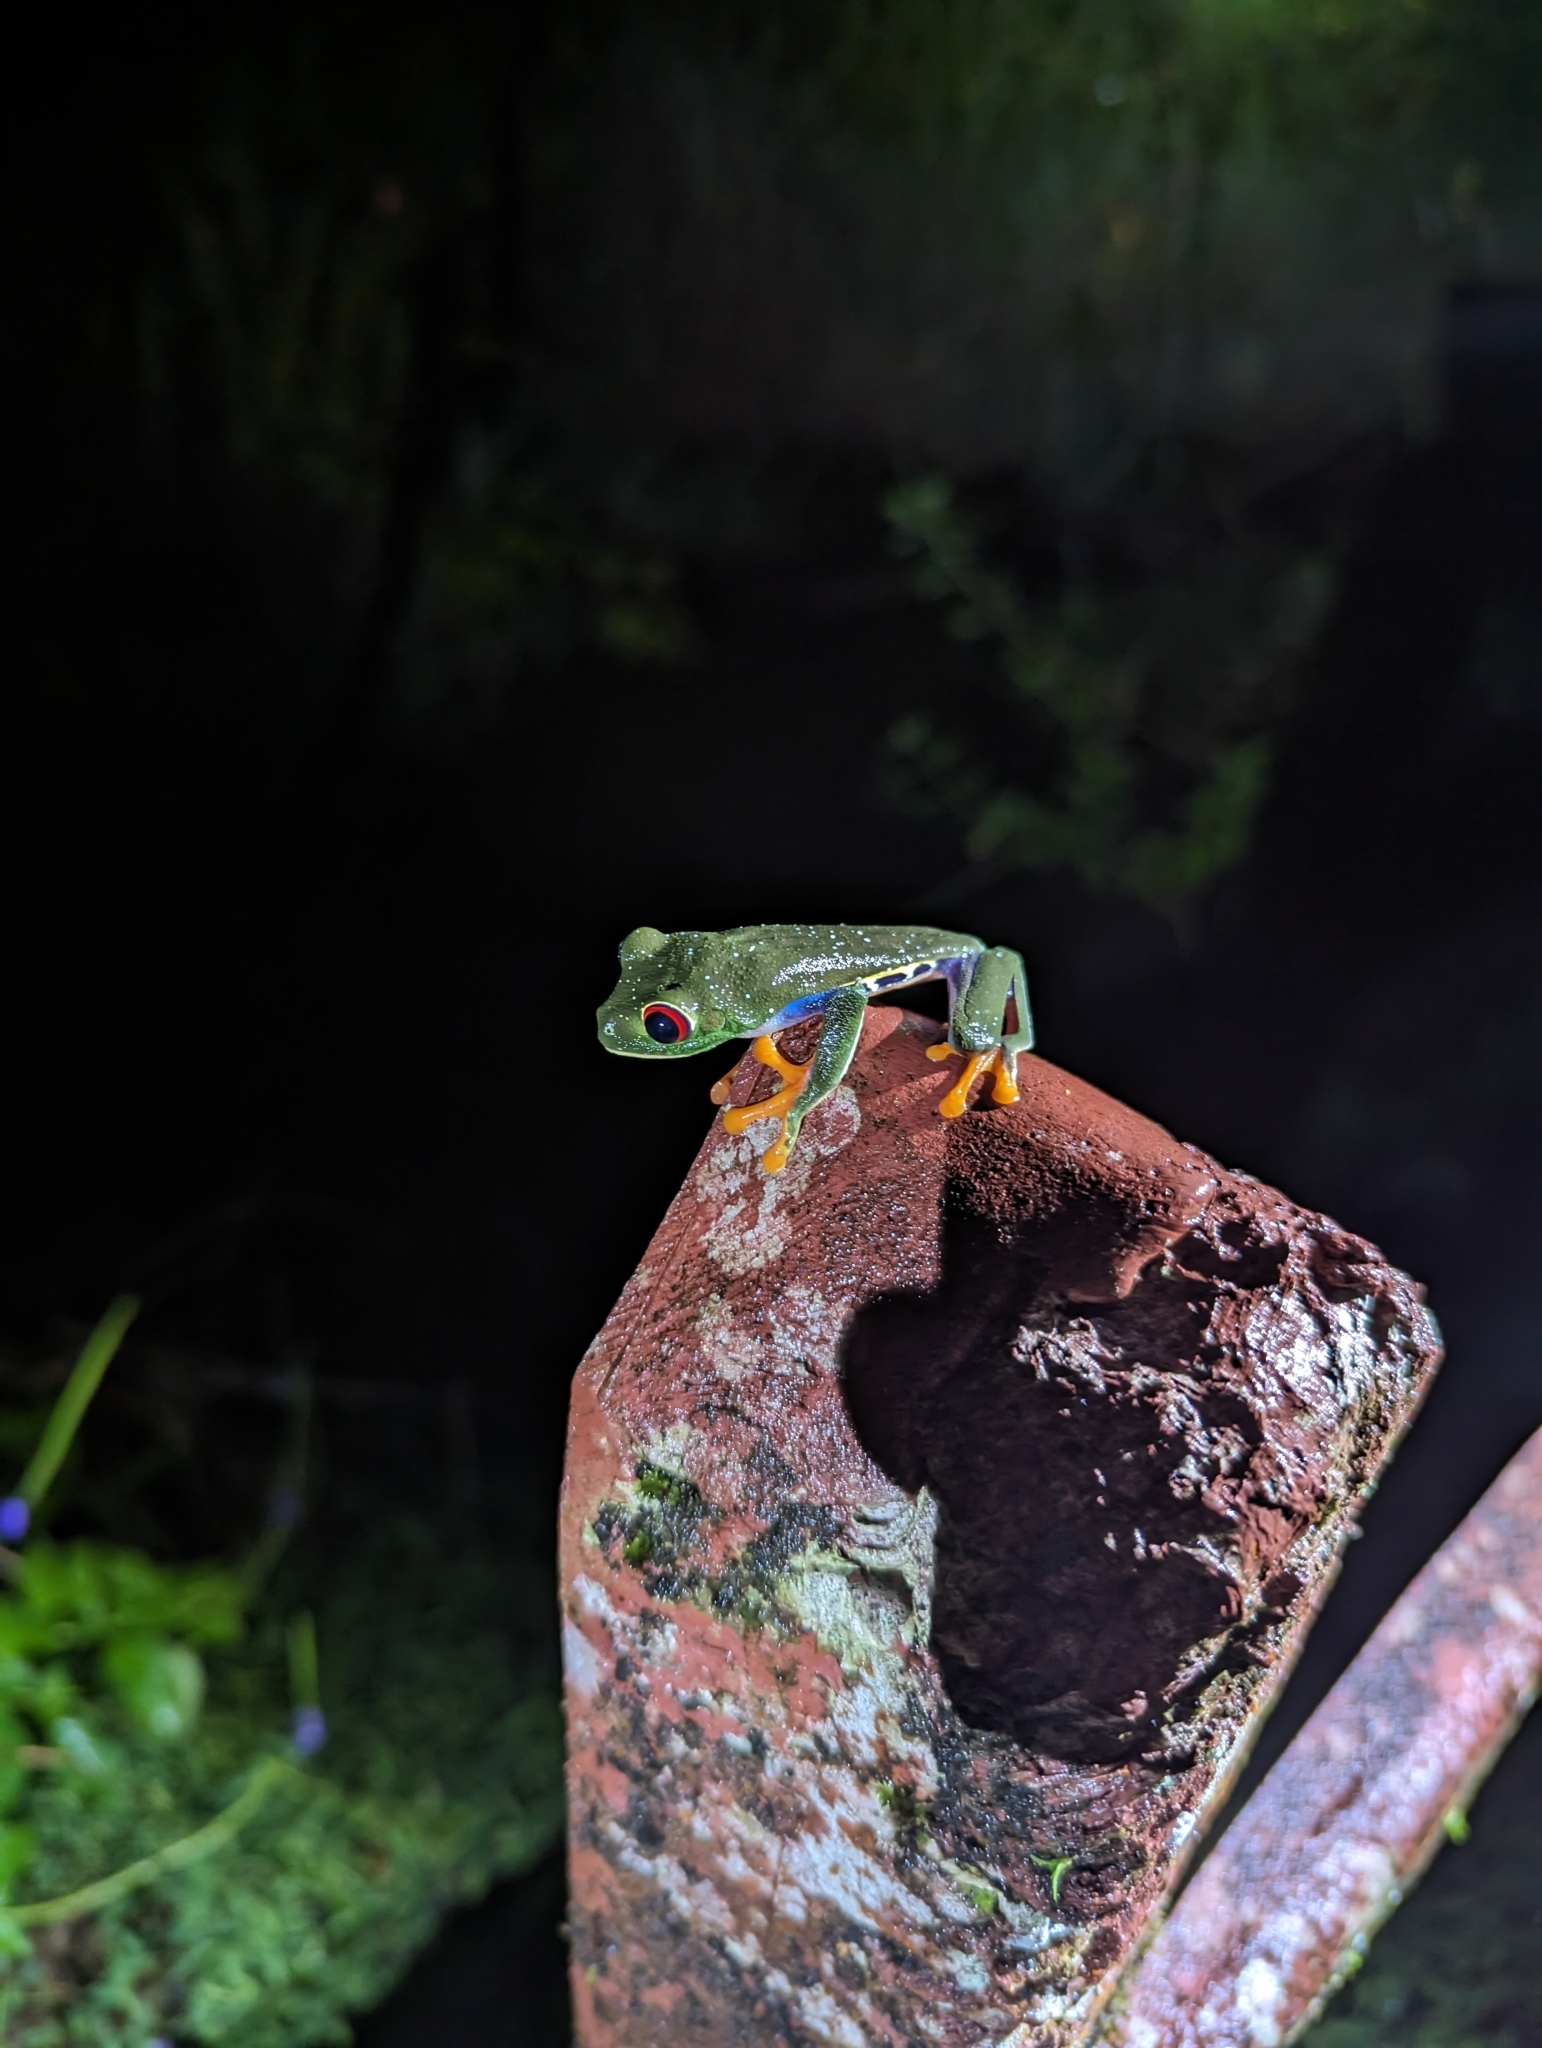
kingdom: Animalia
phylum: Chordata
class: Amphibia
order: Anura
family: Phyllomedusidae
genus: Agalychnis
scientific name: Agalychnis callidryas
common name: Red-eyed treefrog
